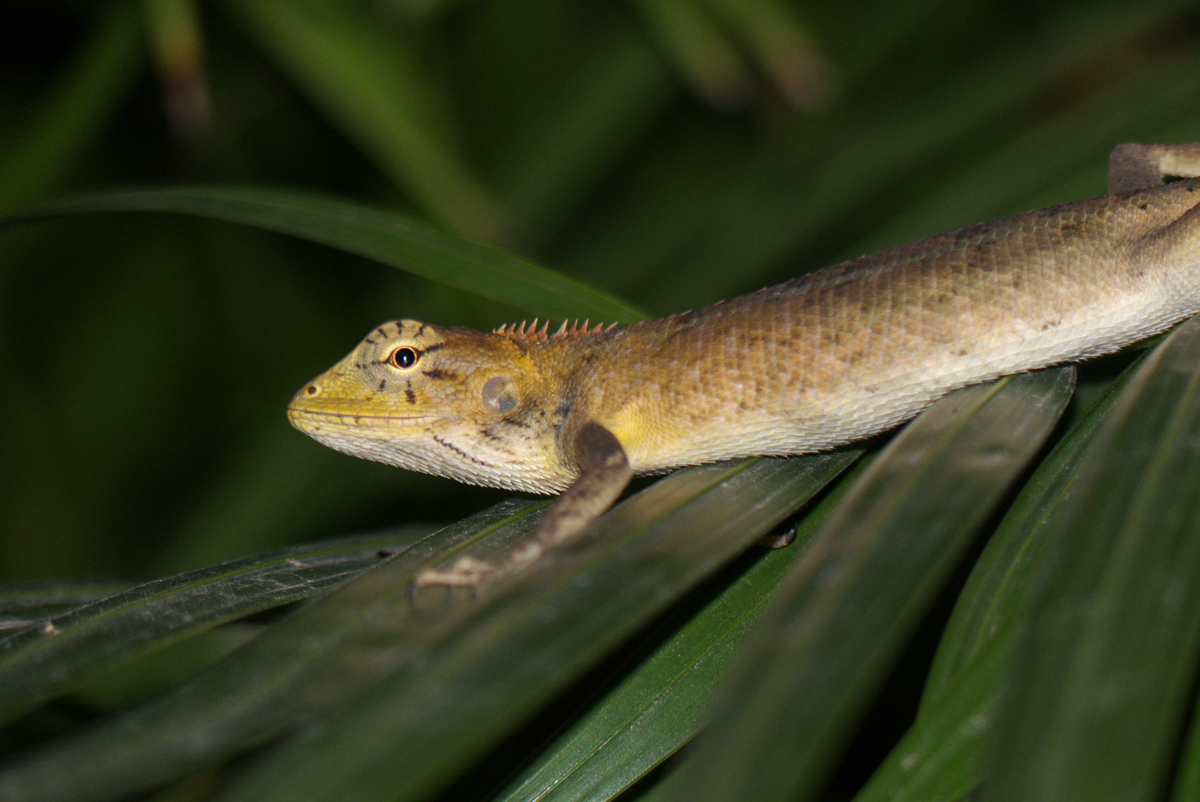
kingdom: Animalia
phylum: Chordata
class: Squamata
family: Agamidae
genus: Calotes
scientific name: Calotes versicolor
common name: Oriental garden lizard
